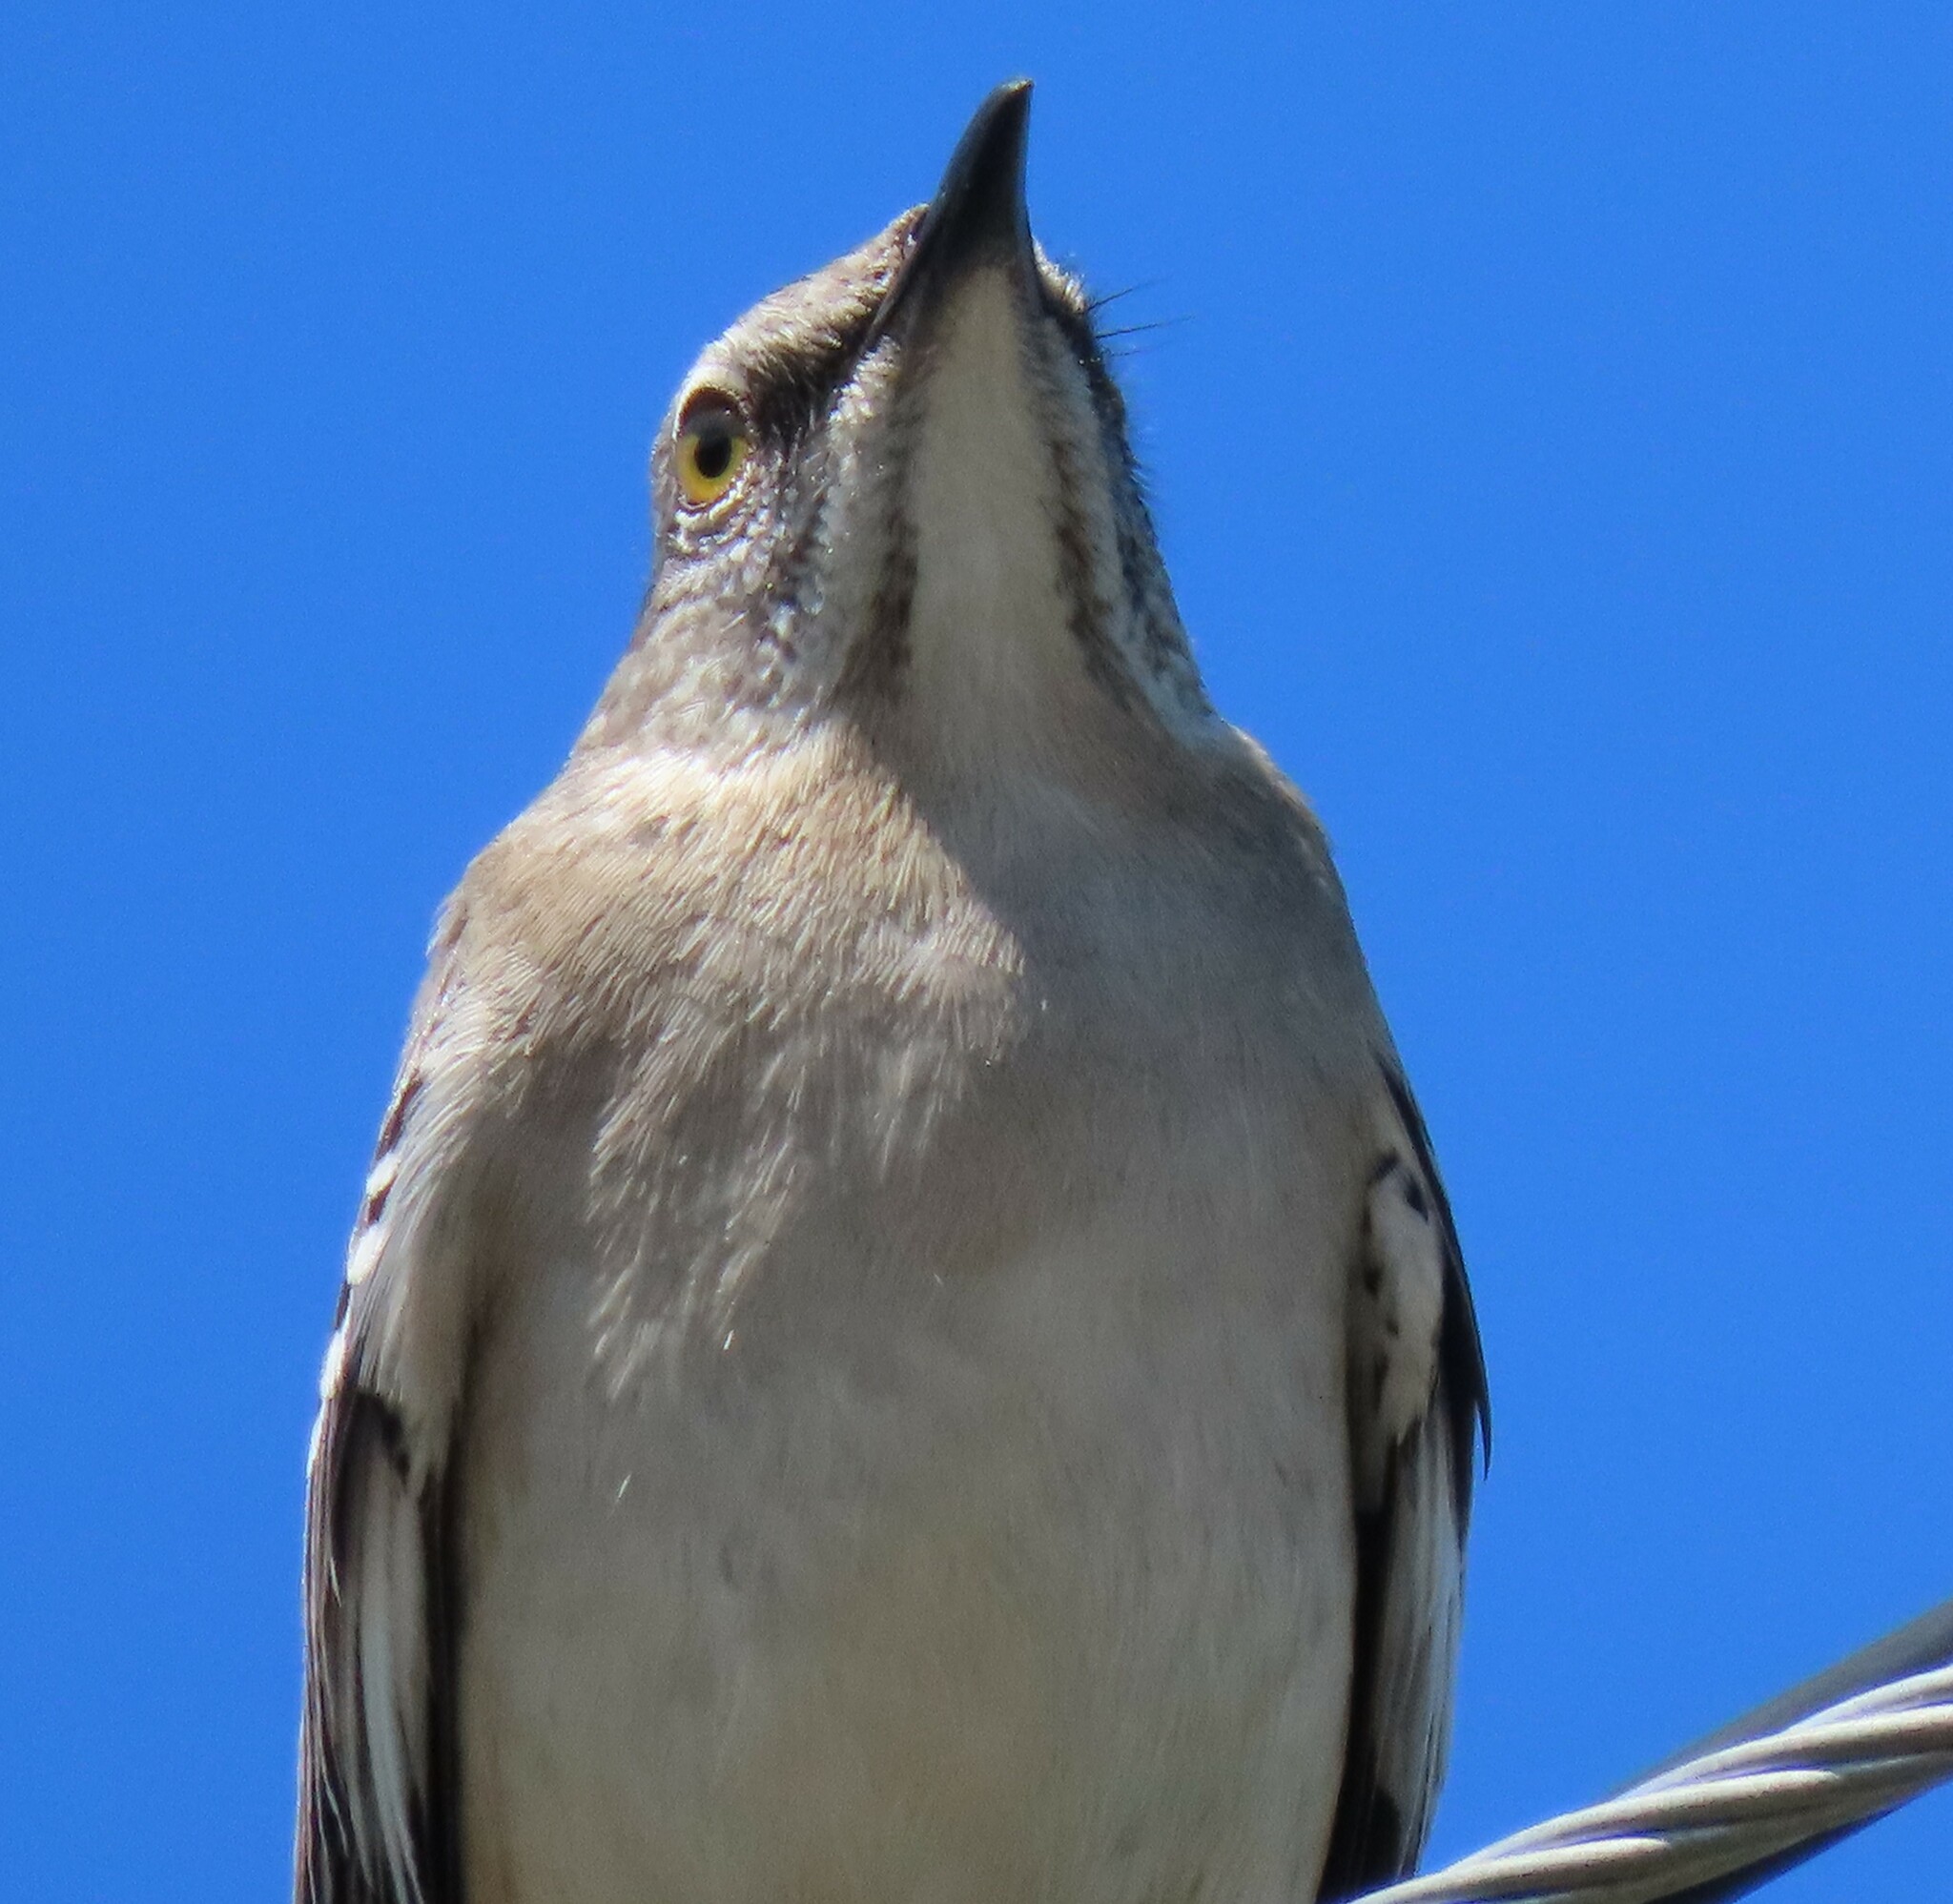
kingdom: Animalia
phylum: Chordata
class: Aves
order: Passeriformes
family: Mimidae
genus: Mimus
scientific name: Mimus polyglottos
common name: Northern mockingbird
